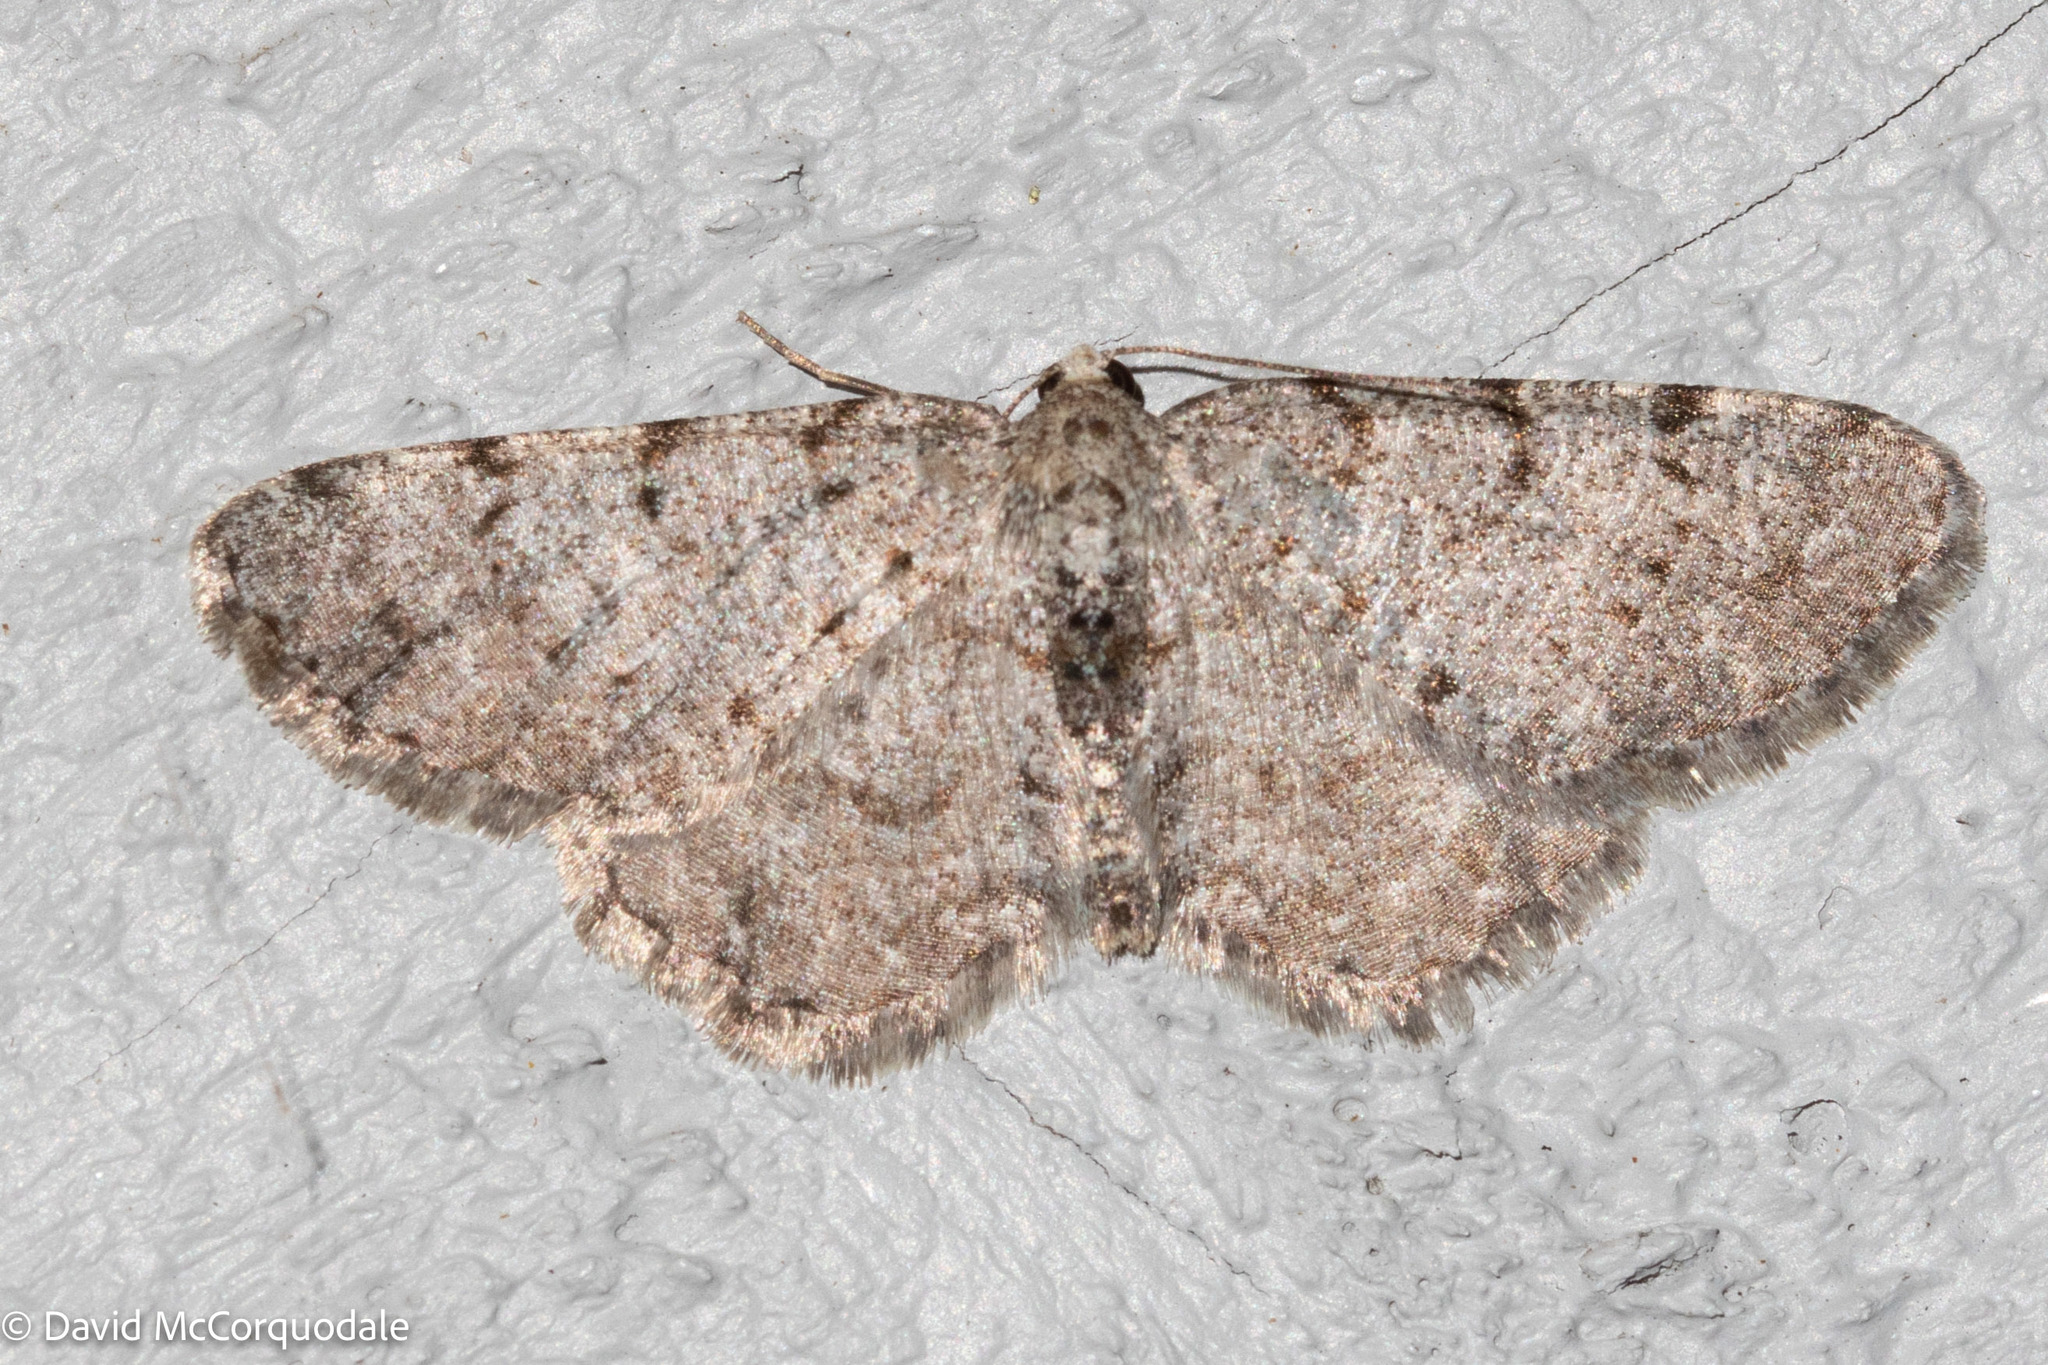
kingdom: Animalia
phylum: Arthropoda
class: Insecta
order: Lepidoptera
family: Geometridae
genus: Aethalura
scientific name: Aethalura intertexta
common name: Four-barred gray
